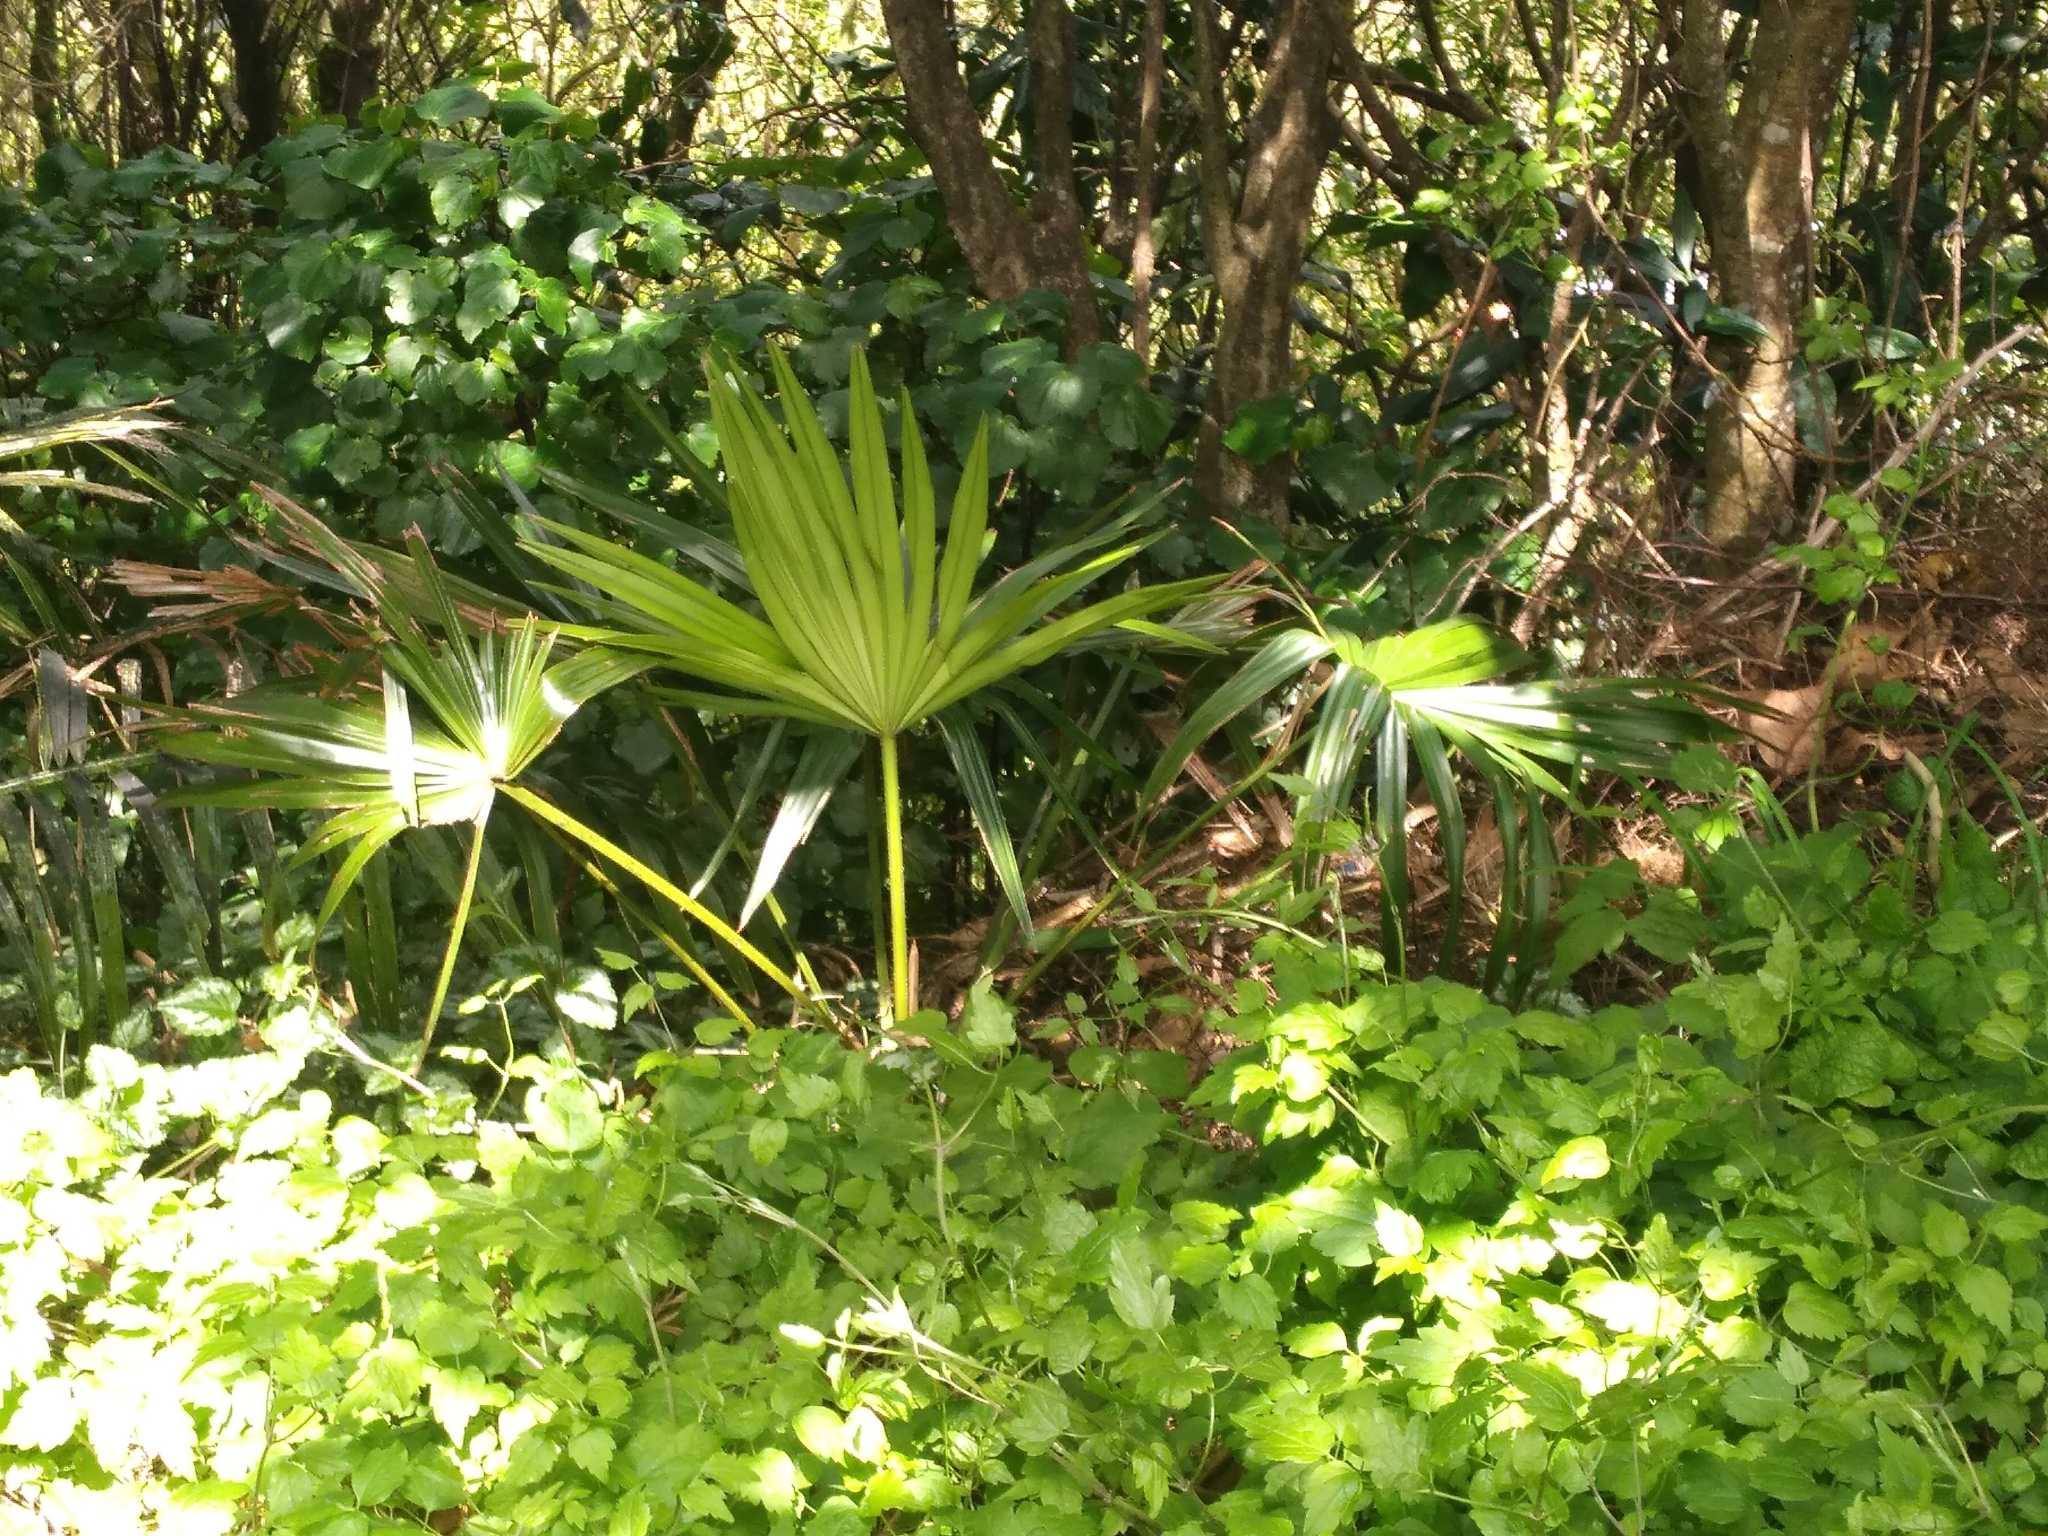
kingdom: Plantae
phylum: Tracheophyta
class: Liliopsida
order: Arecales
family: Arecaceae
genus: Trachycarpus
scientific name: Trachycarpus fortunei
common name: Chusan palm
